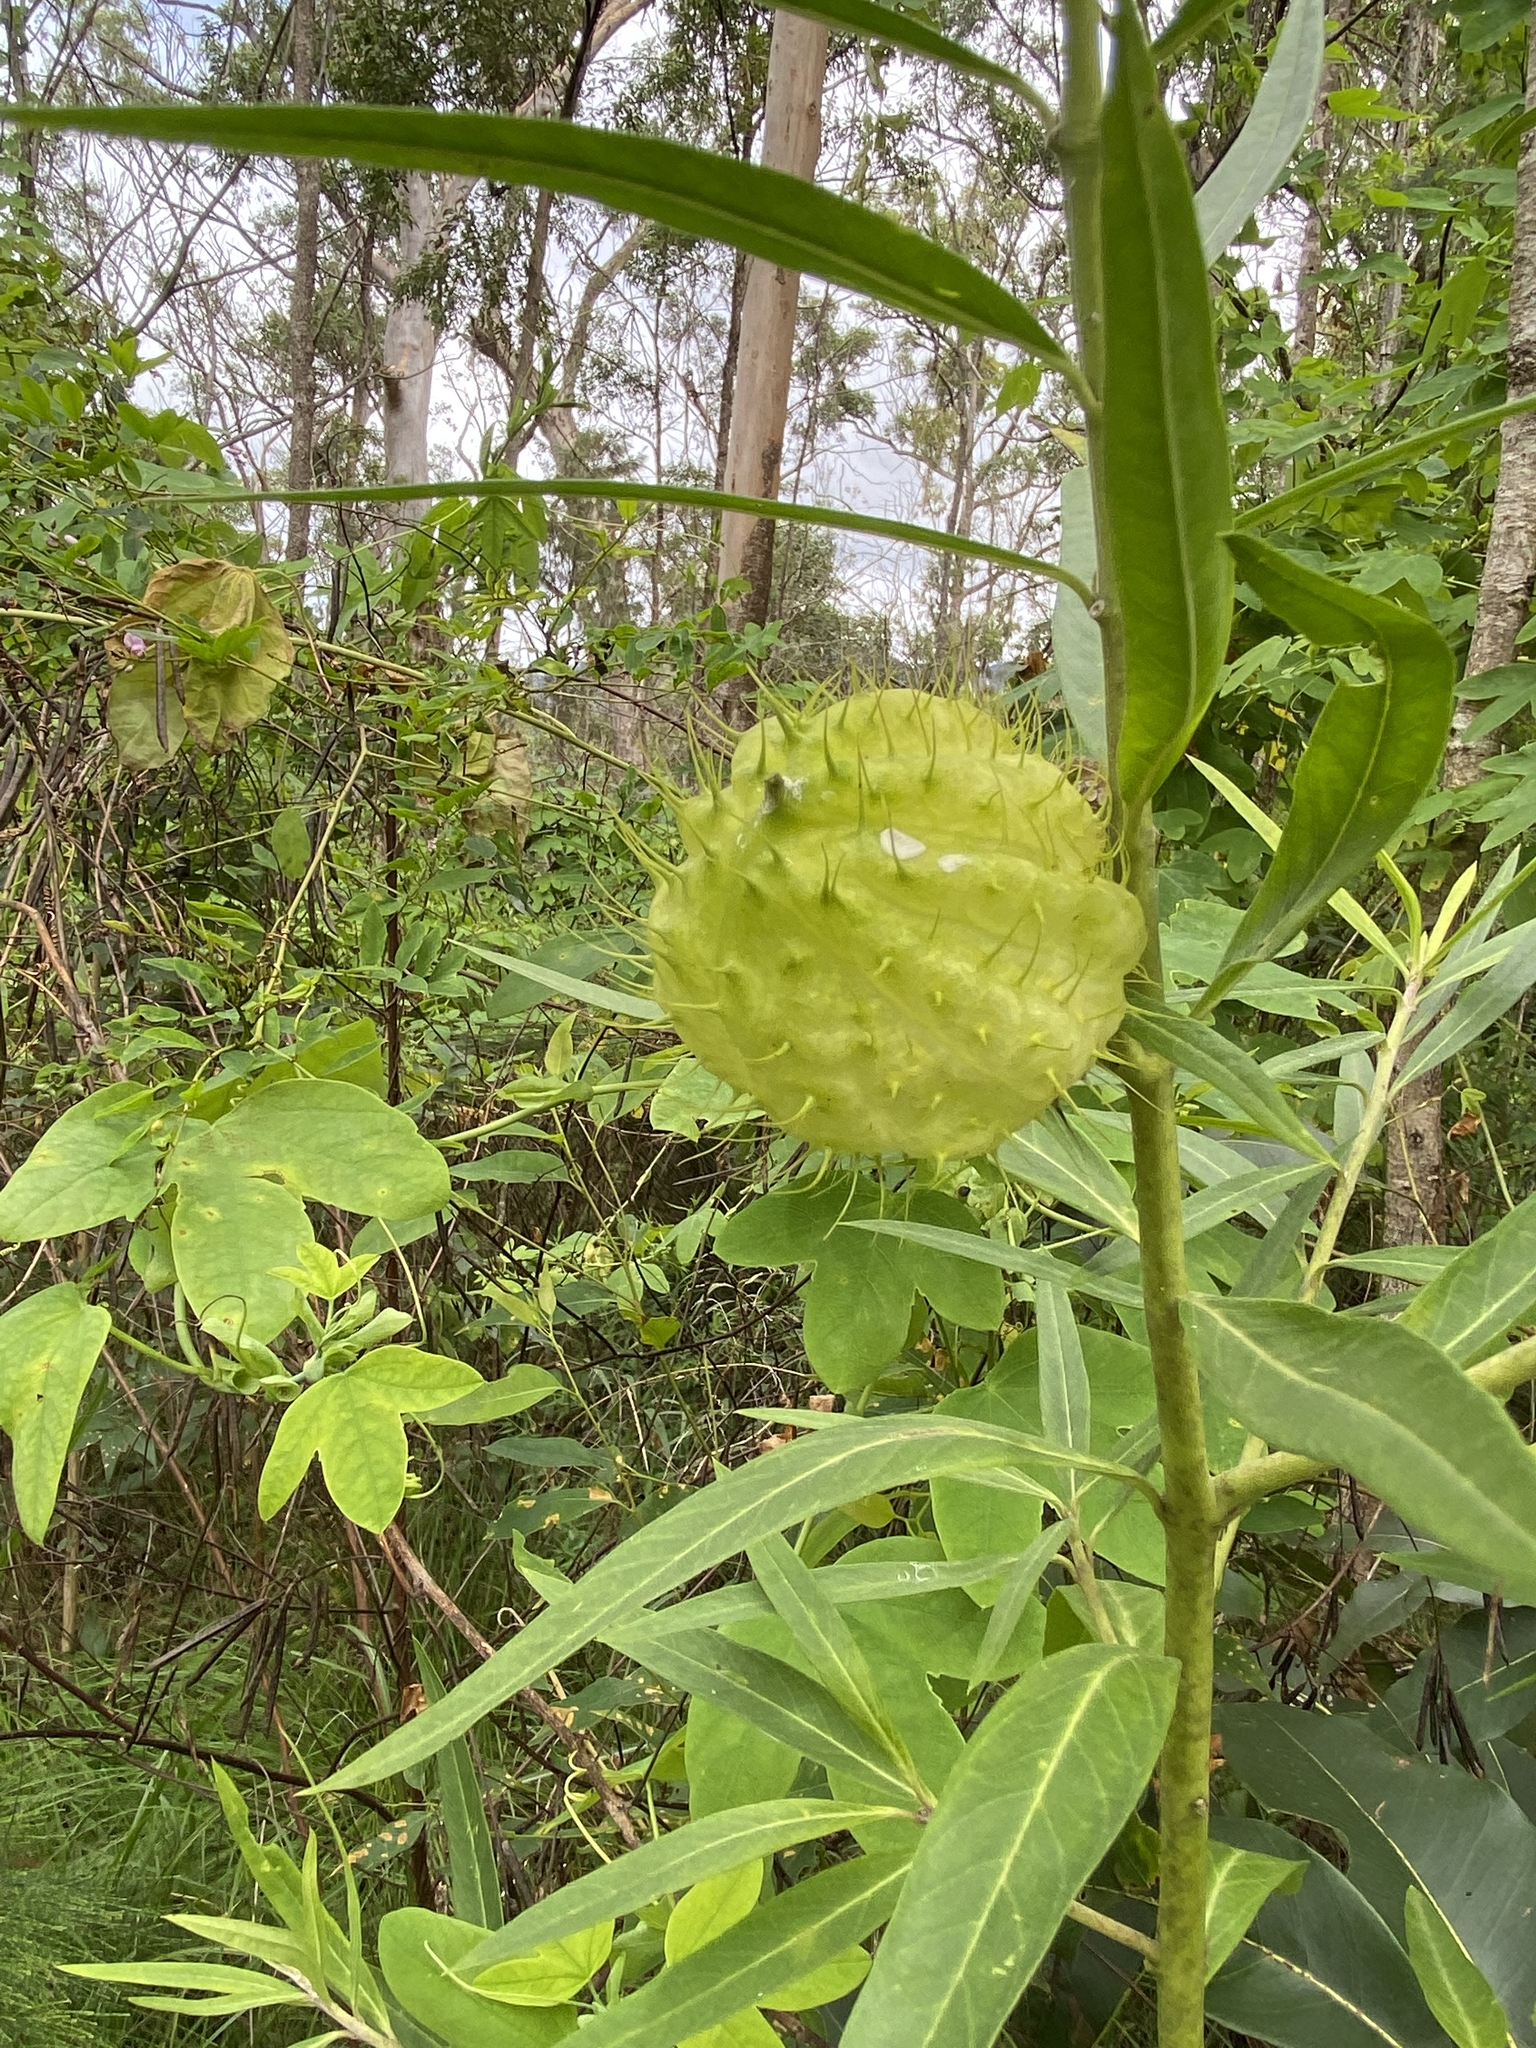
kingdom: Plantae
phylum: Tracheophyta
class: Magnoliopsida
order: Gentianales
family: Apocynaceae
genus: Gomphocarpus
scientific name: Gomphocarpus physocarpus
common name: Balloon cotton bush
